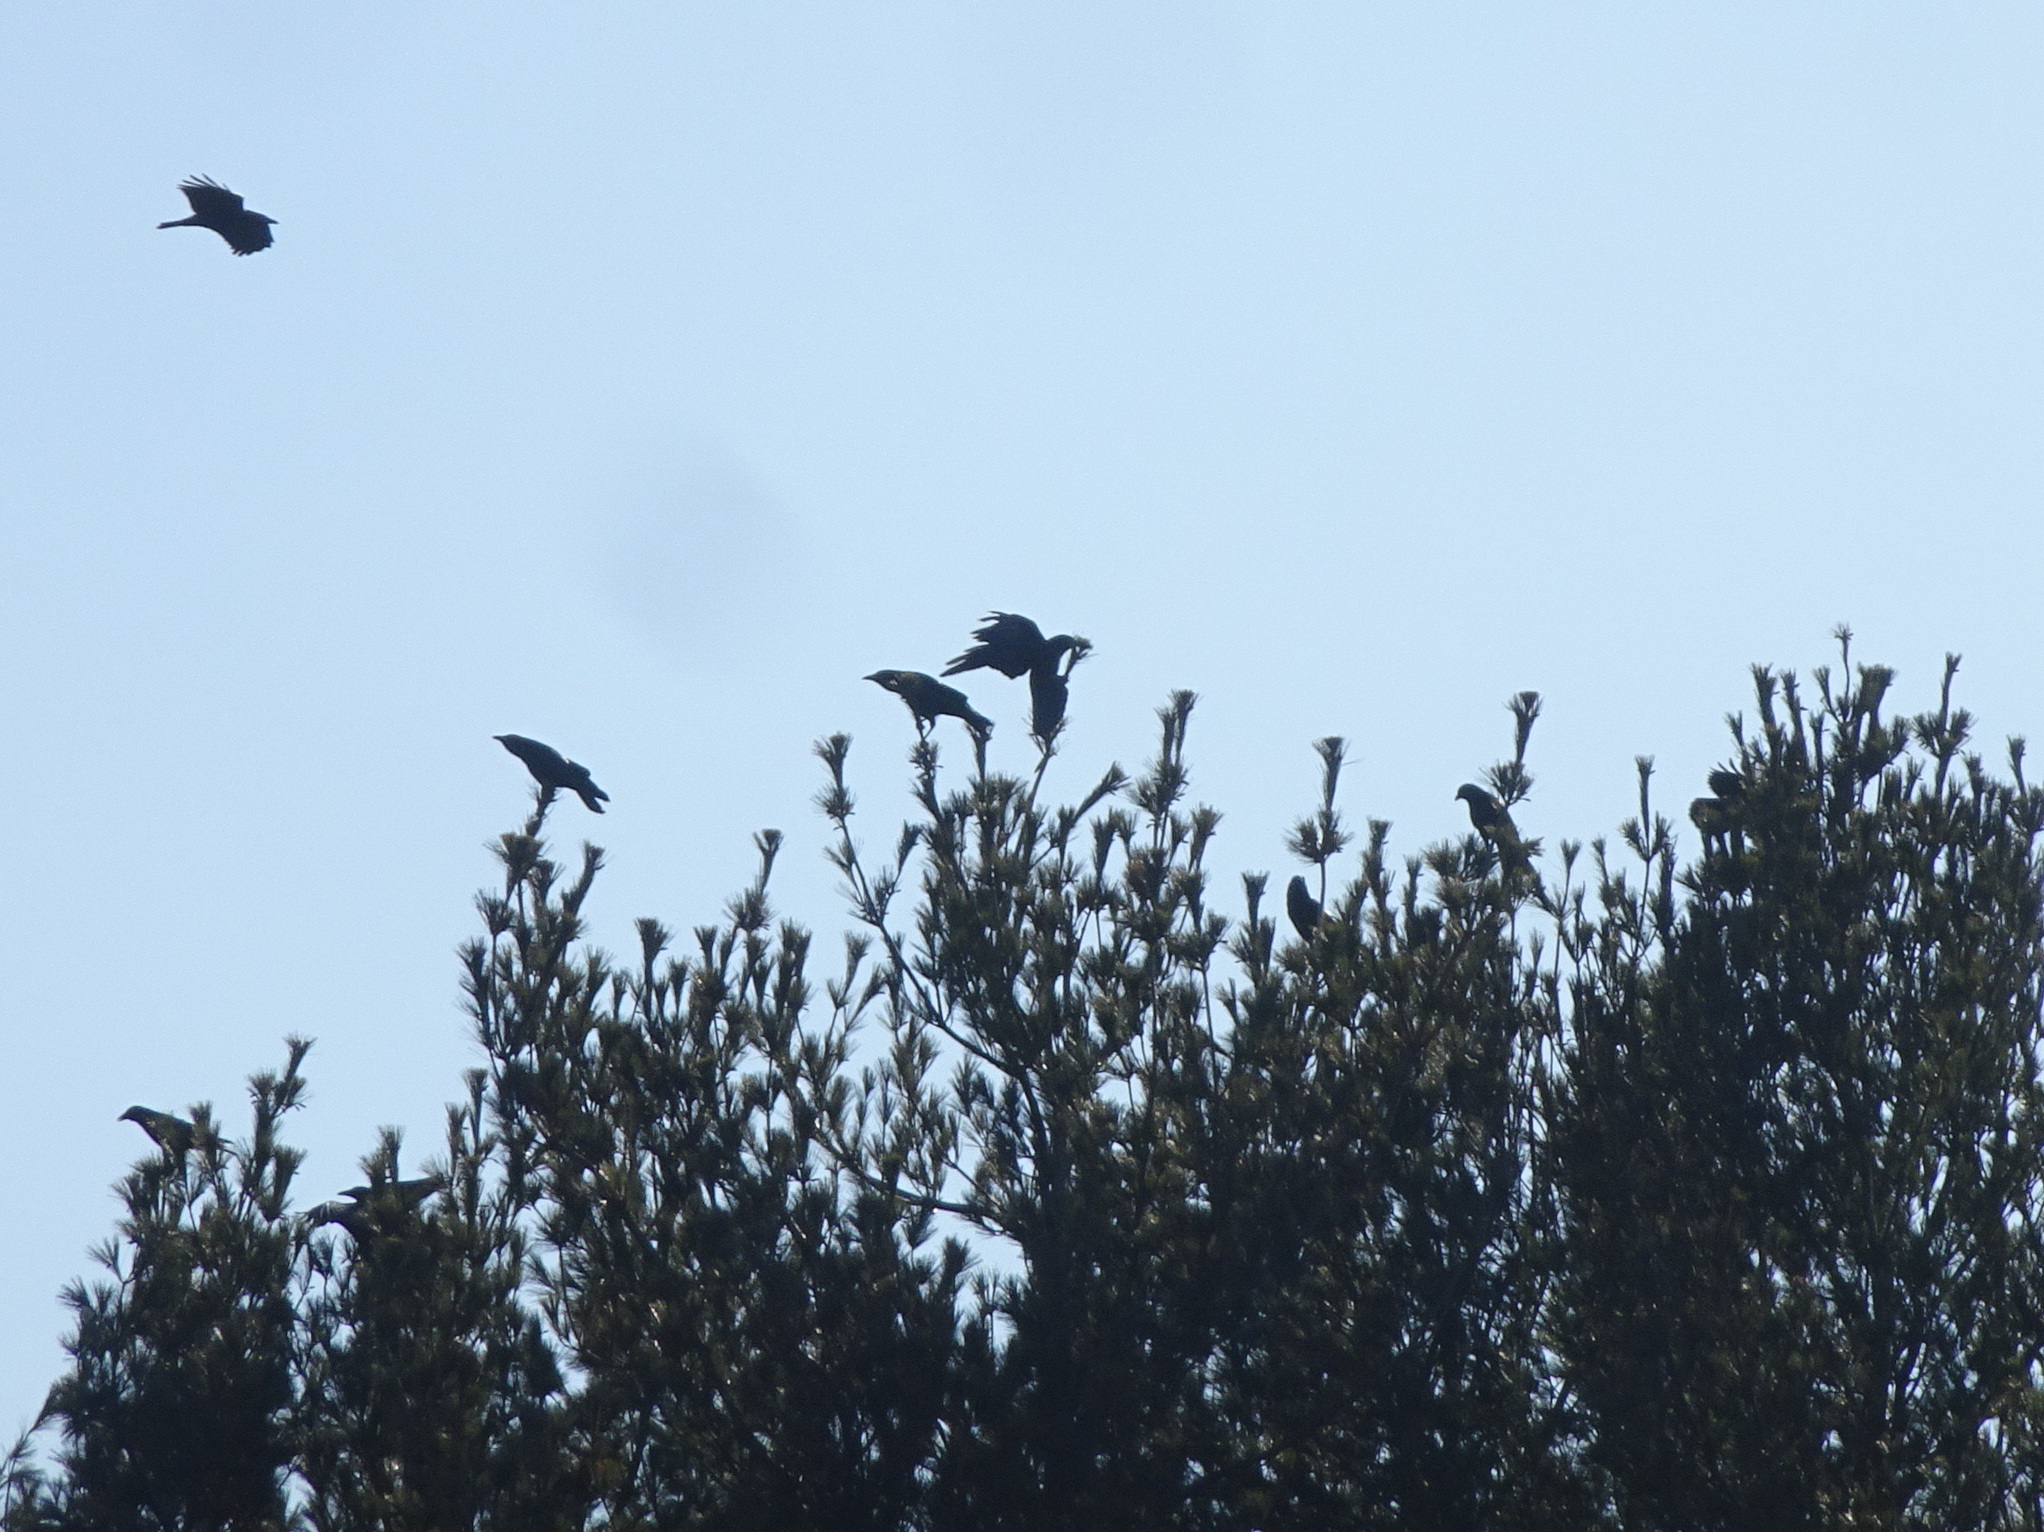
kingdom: Animalia
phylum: Chordata
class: Aves
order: Passeriformes
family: Corvidae
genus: Corvus
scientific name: Corvus brachyrhynchos
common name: American crow
